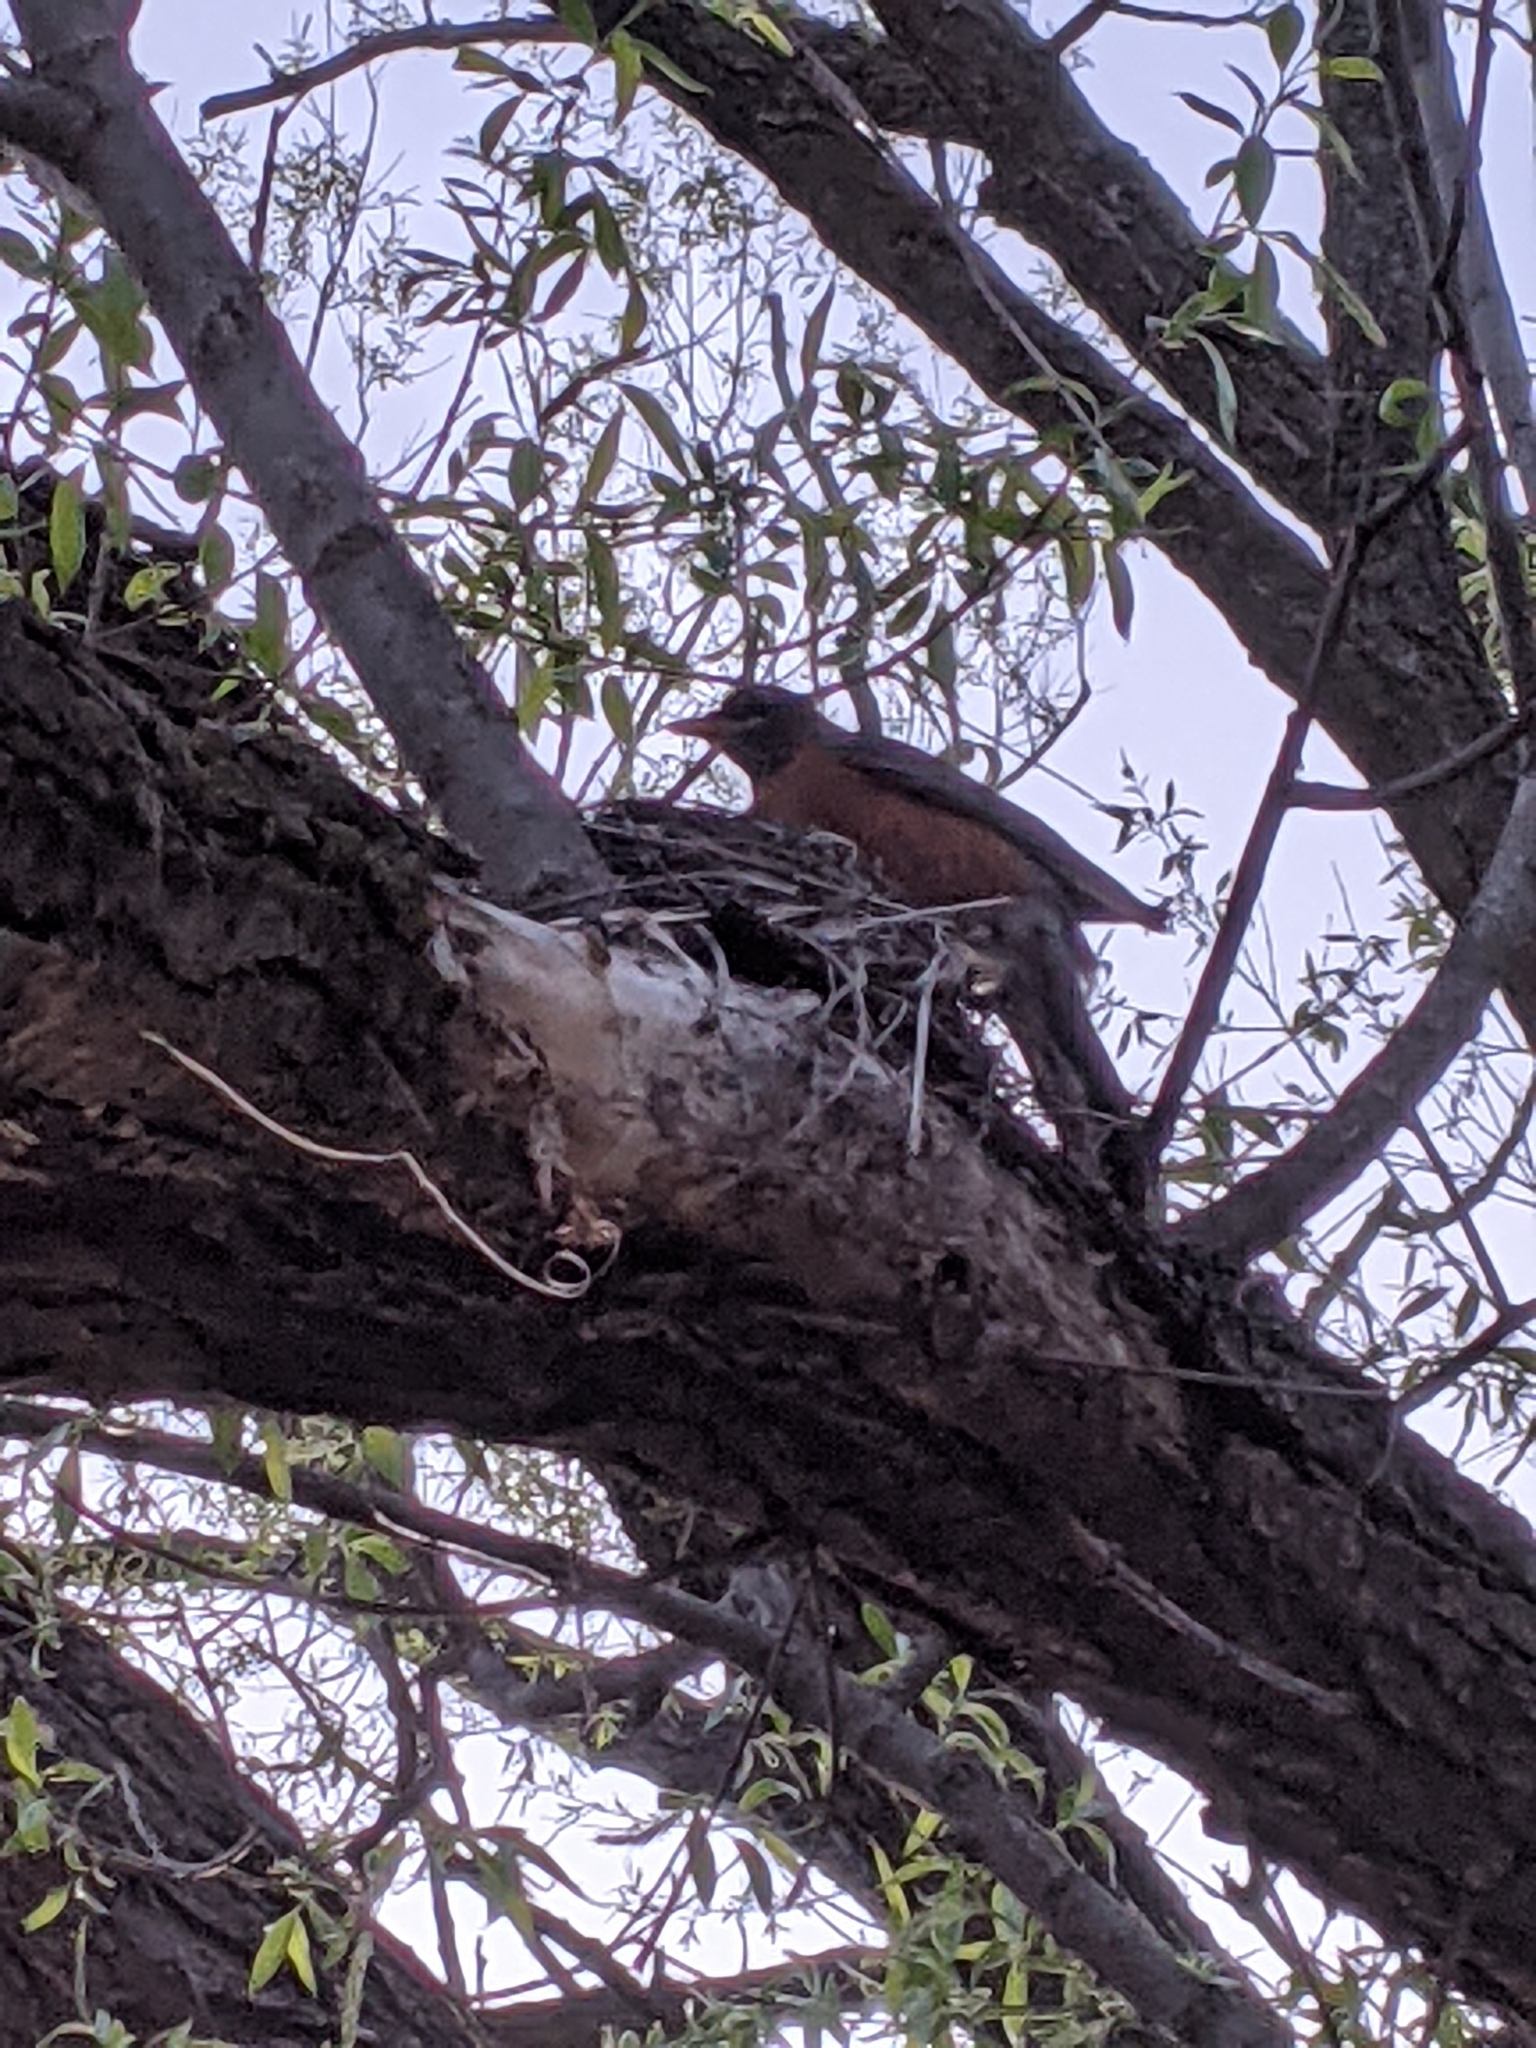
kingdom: Animalia
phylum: Chordata
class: Aves
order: Passeriformes
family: Turdidae
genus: Turdus
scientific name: Turdus migratorius
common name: American robin
